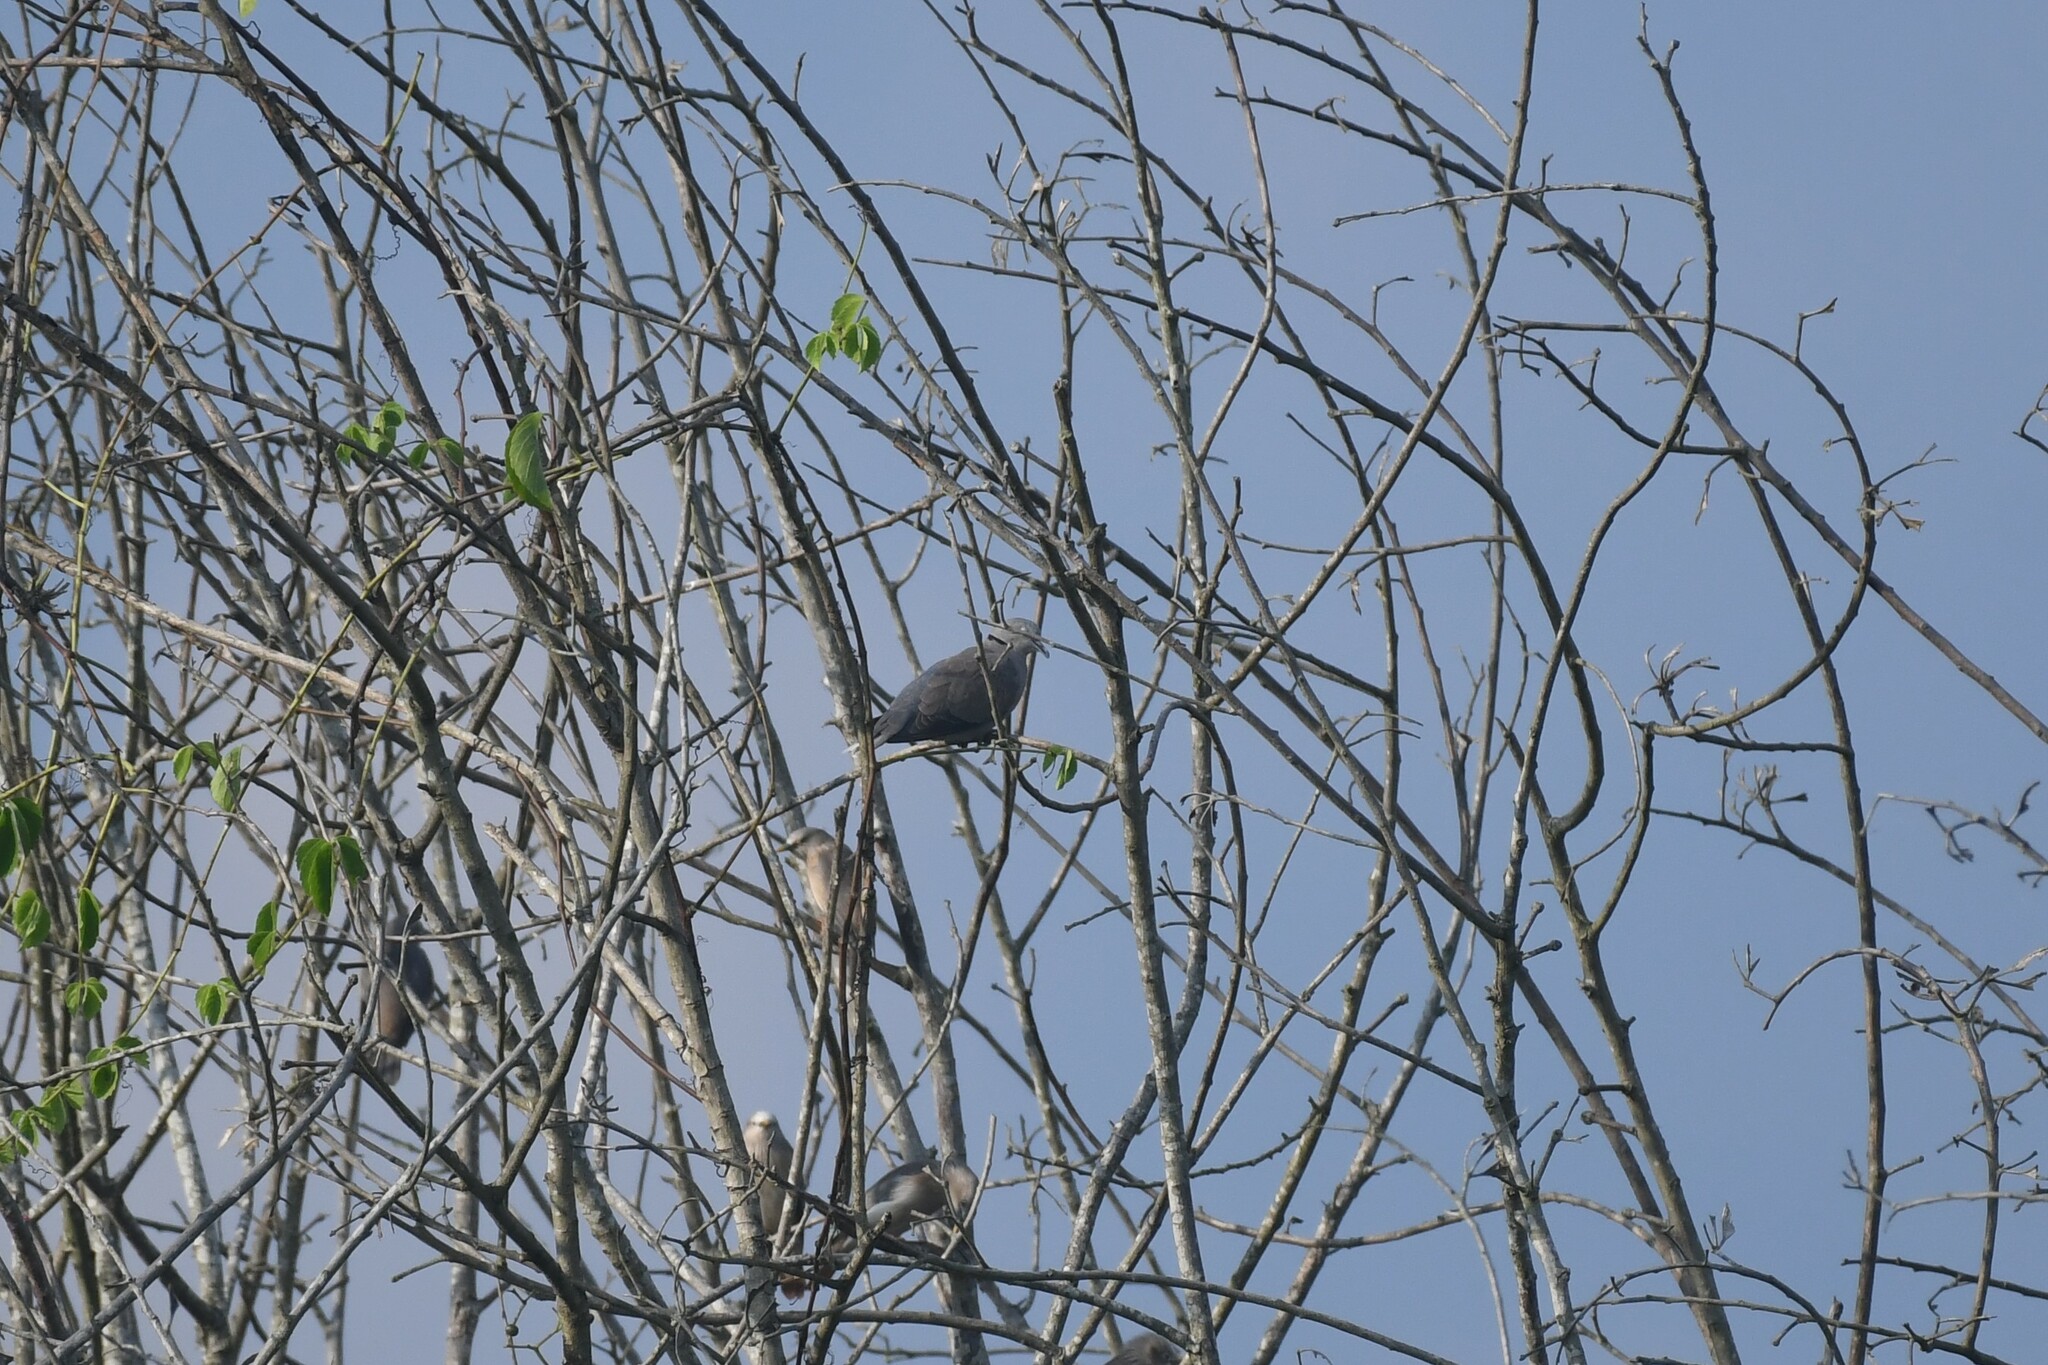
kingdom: Animalia
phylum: Chordata
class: Aves
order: Columbiformes
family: Columbidae
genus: Streptopelia
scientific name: Streptopelia tranquebarica
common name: Red turtle dove
